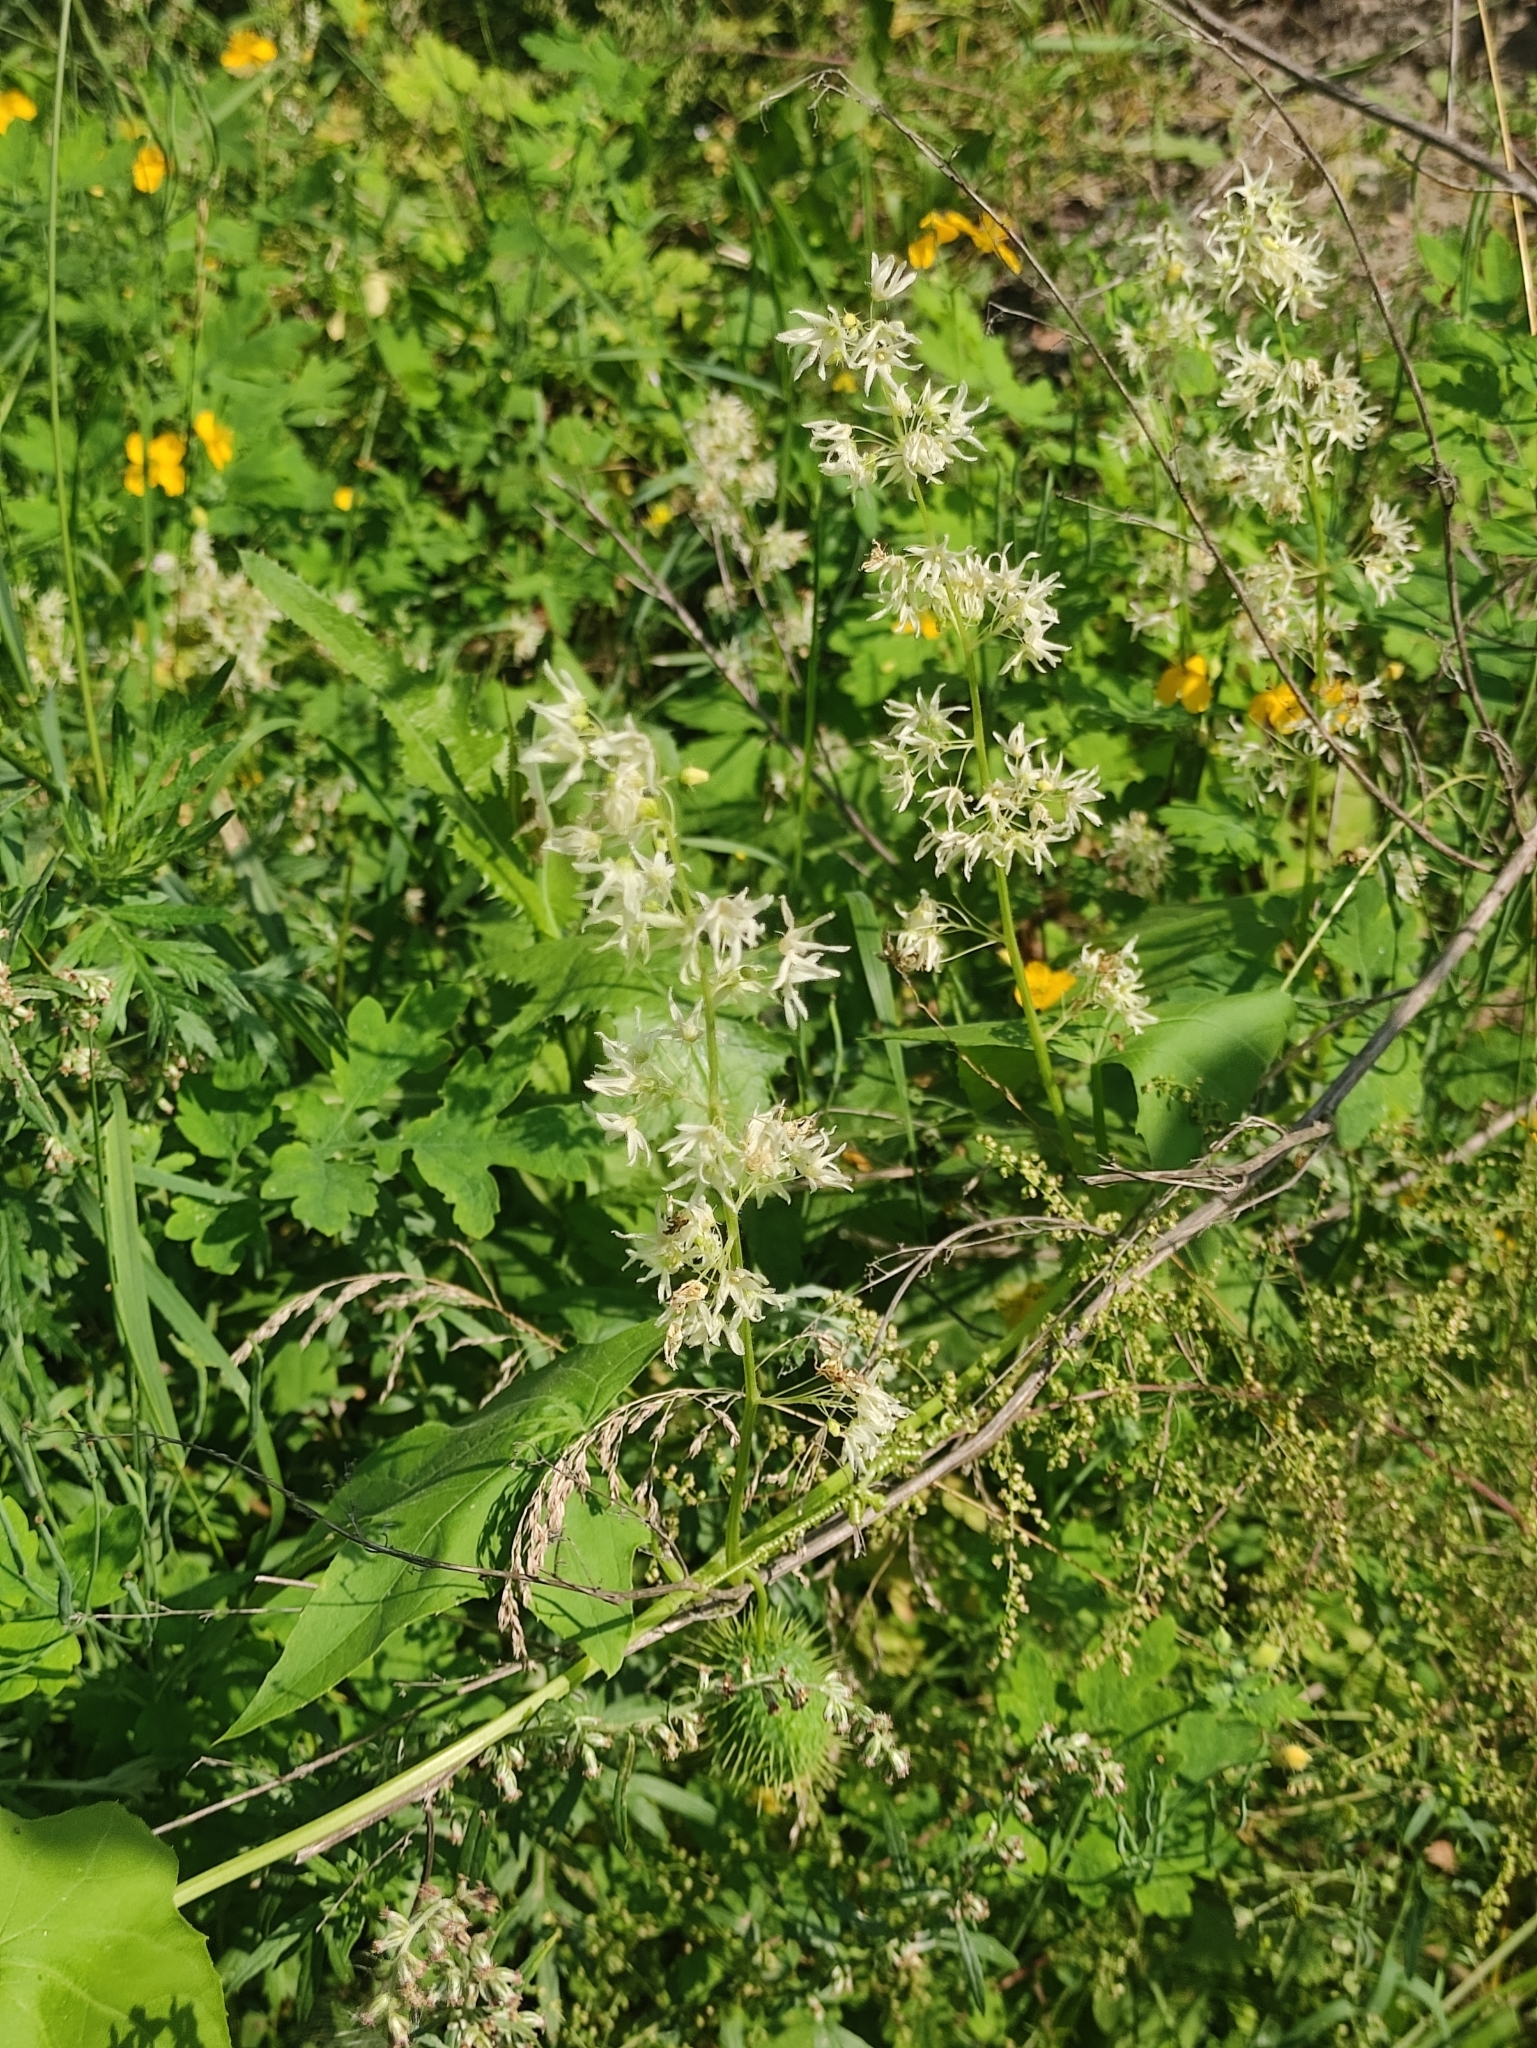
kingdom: Plantae
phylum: Tracheophyta
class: Magnoliopsida
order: Cucurbitales
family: Cucurbitaceae
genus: Echinocystis
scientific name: Echinocystis lobata
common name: Wild cucumber
